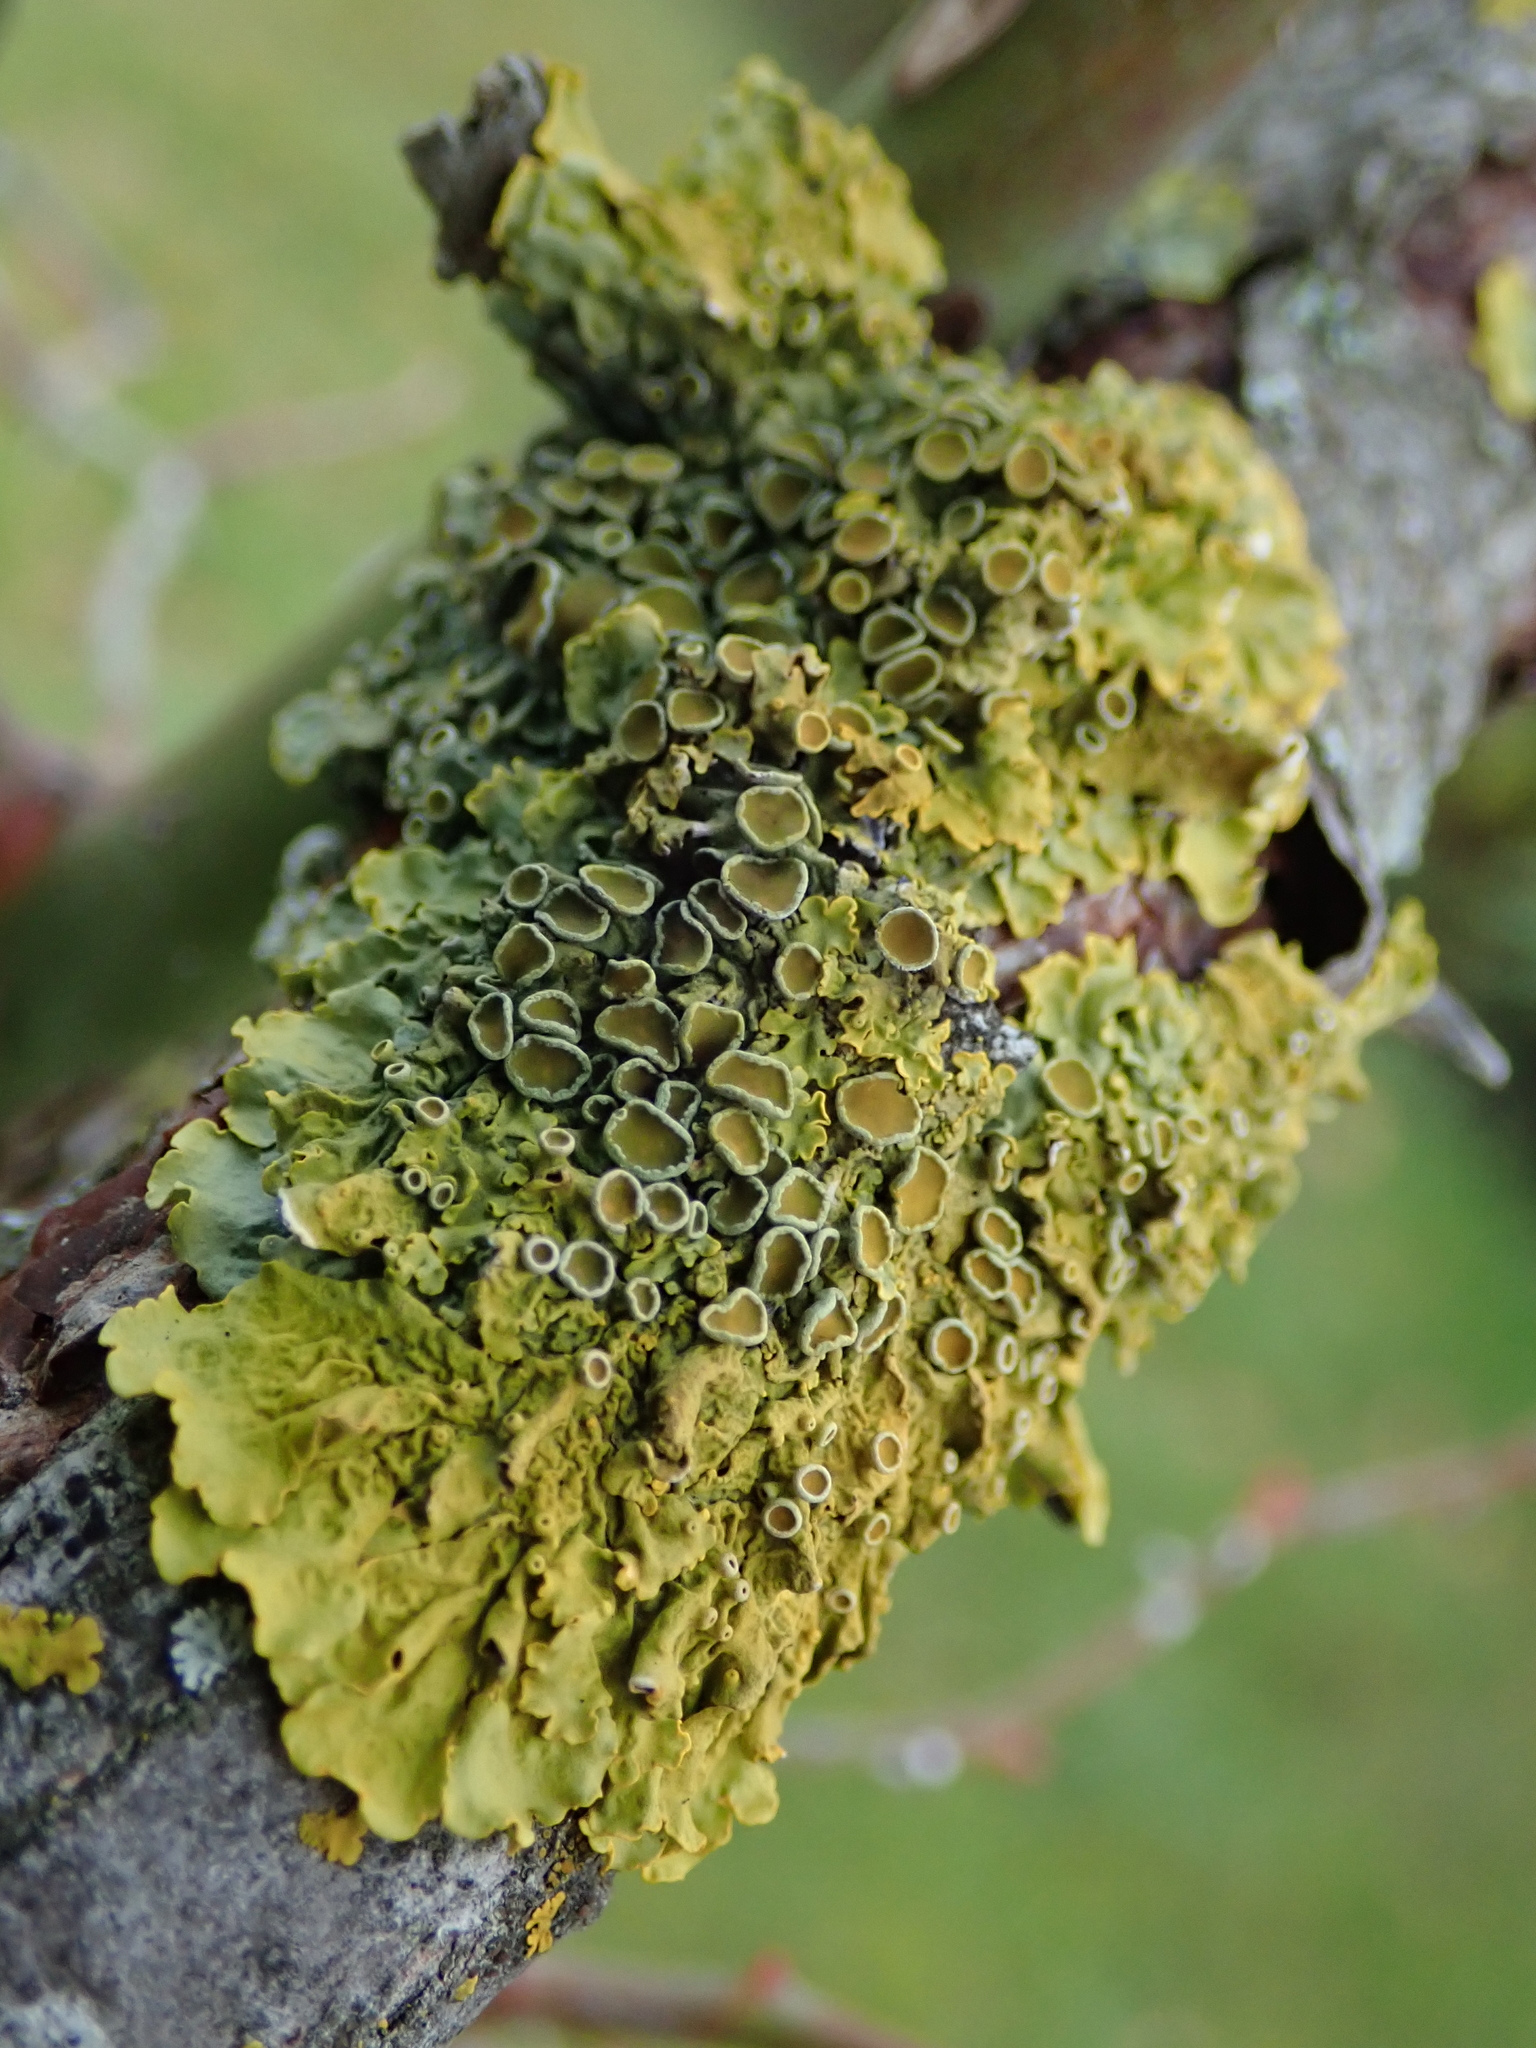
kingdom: Fungi
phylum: Ascomycota
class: Lecanoromycetes
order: Teloschistales
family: Teloschistaceae
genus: Xanthoria
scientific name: Xanthoria parietina
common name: Common orange lichen
